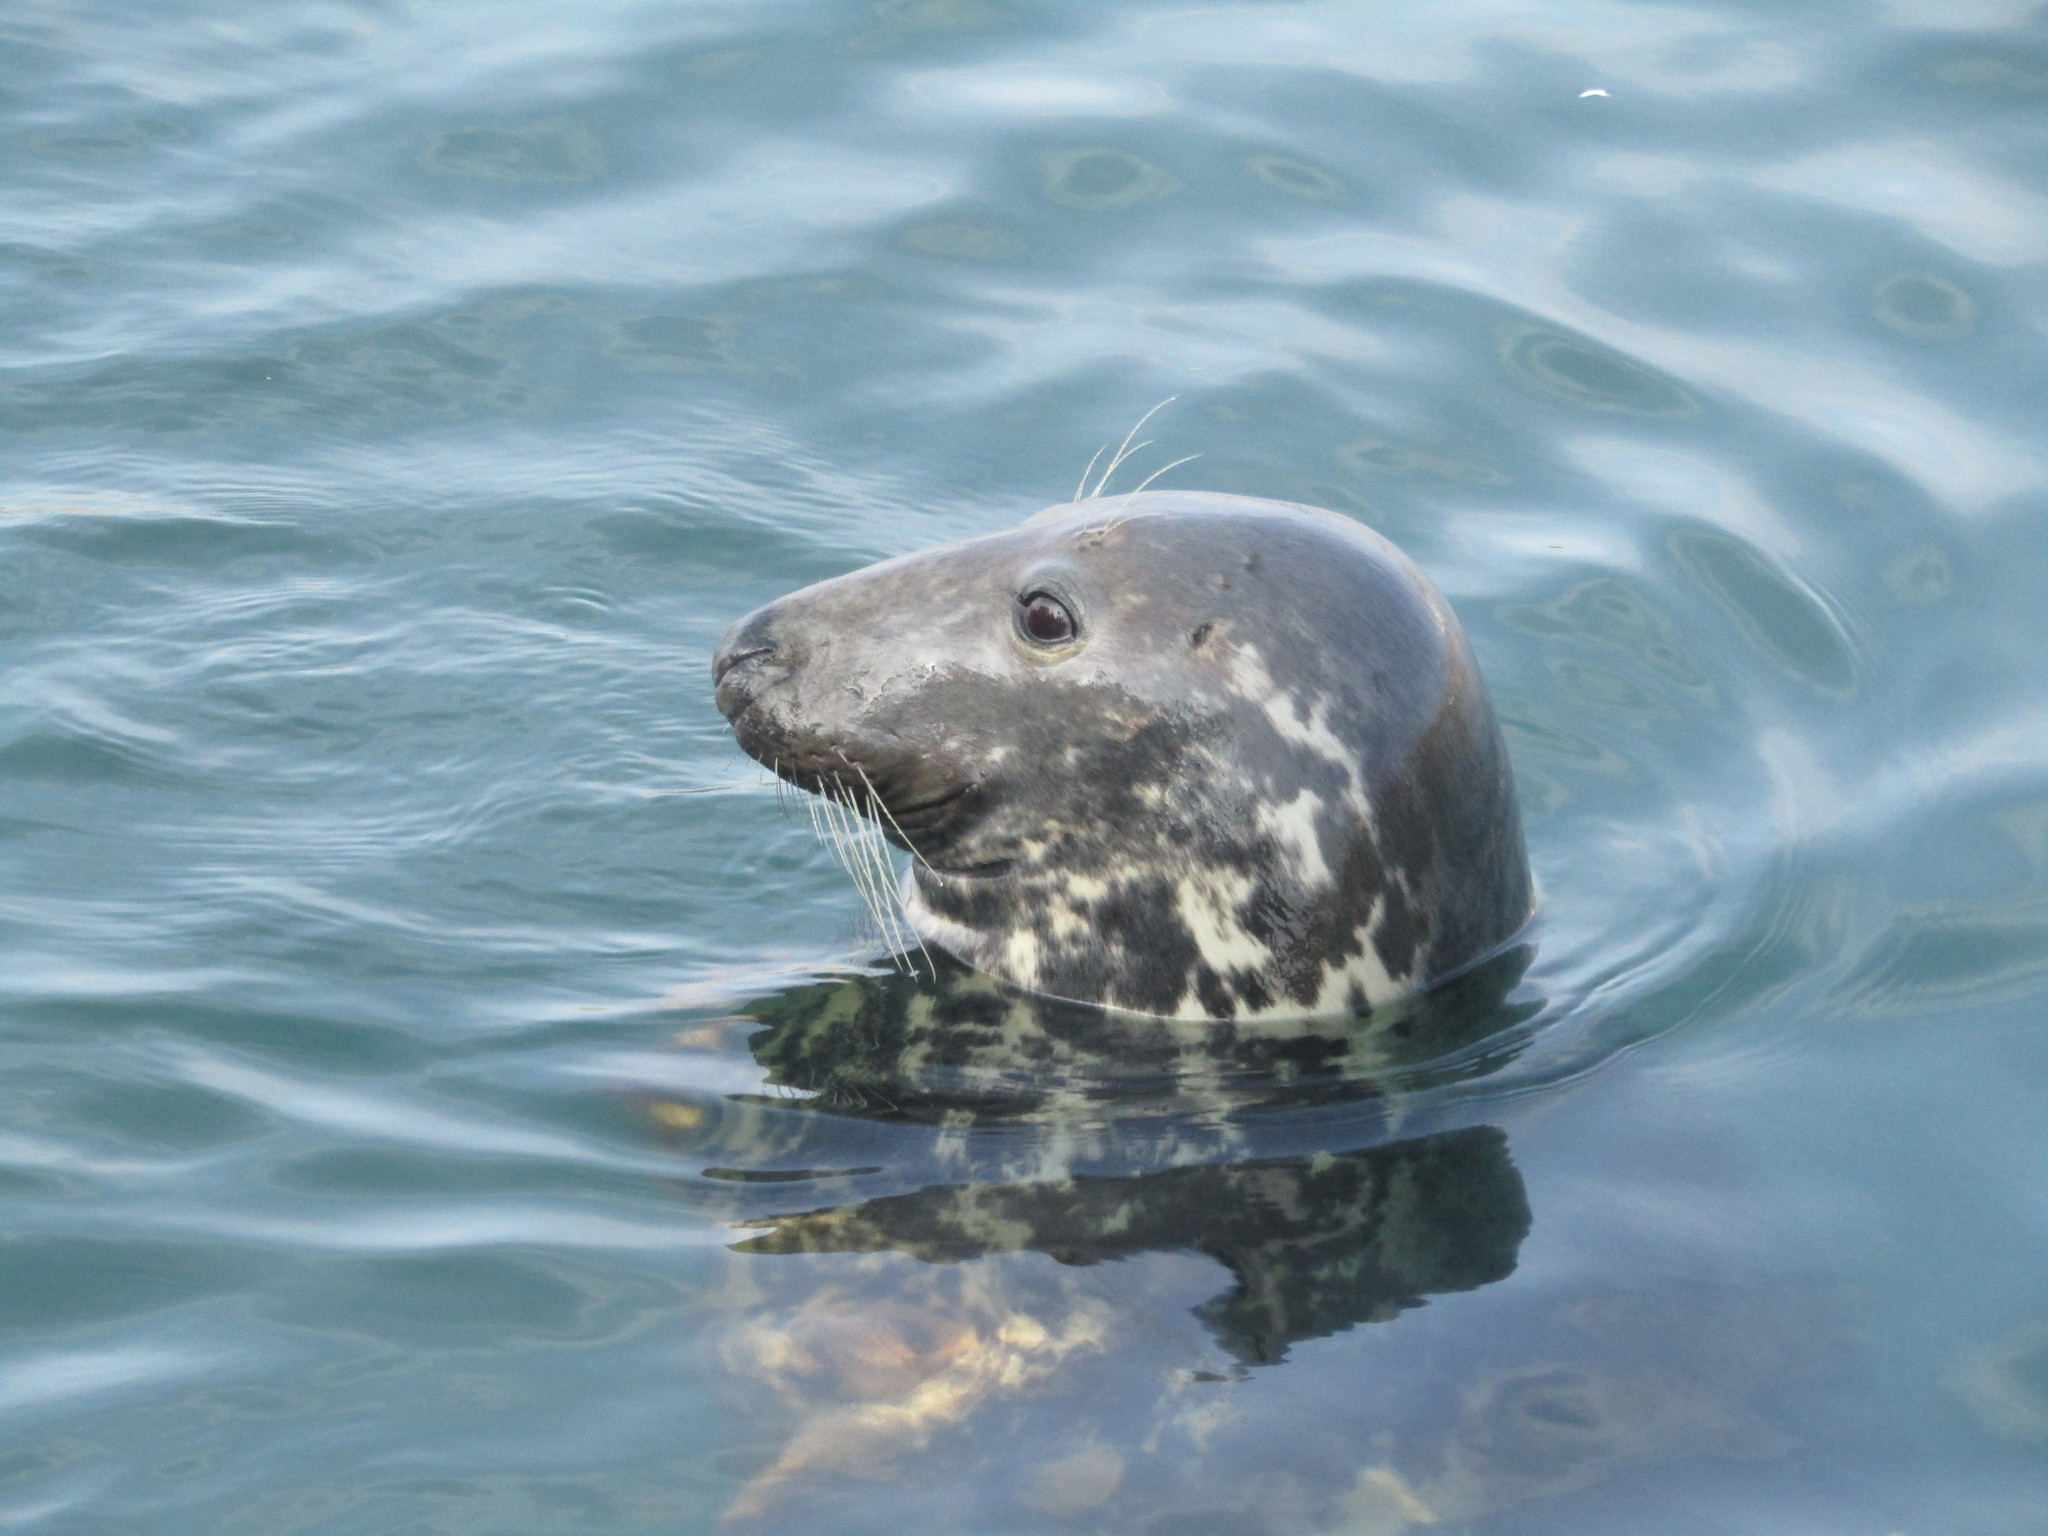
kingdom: Animalia
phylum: Chordata
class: Mammalia
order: Carnivora
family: Phocidae
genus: Halichoerus
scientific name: Halichoerus grypus
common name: Grey seal
